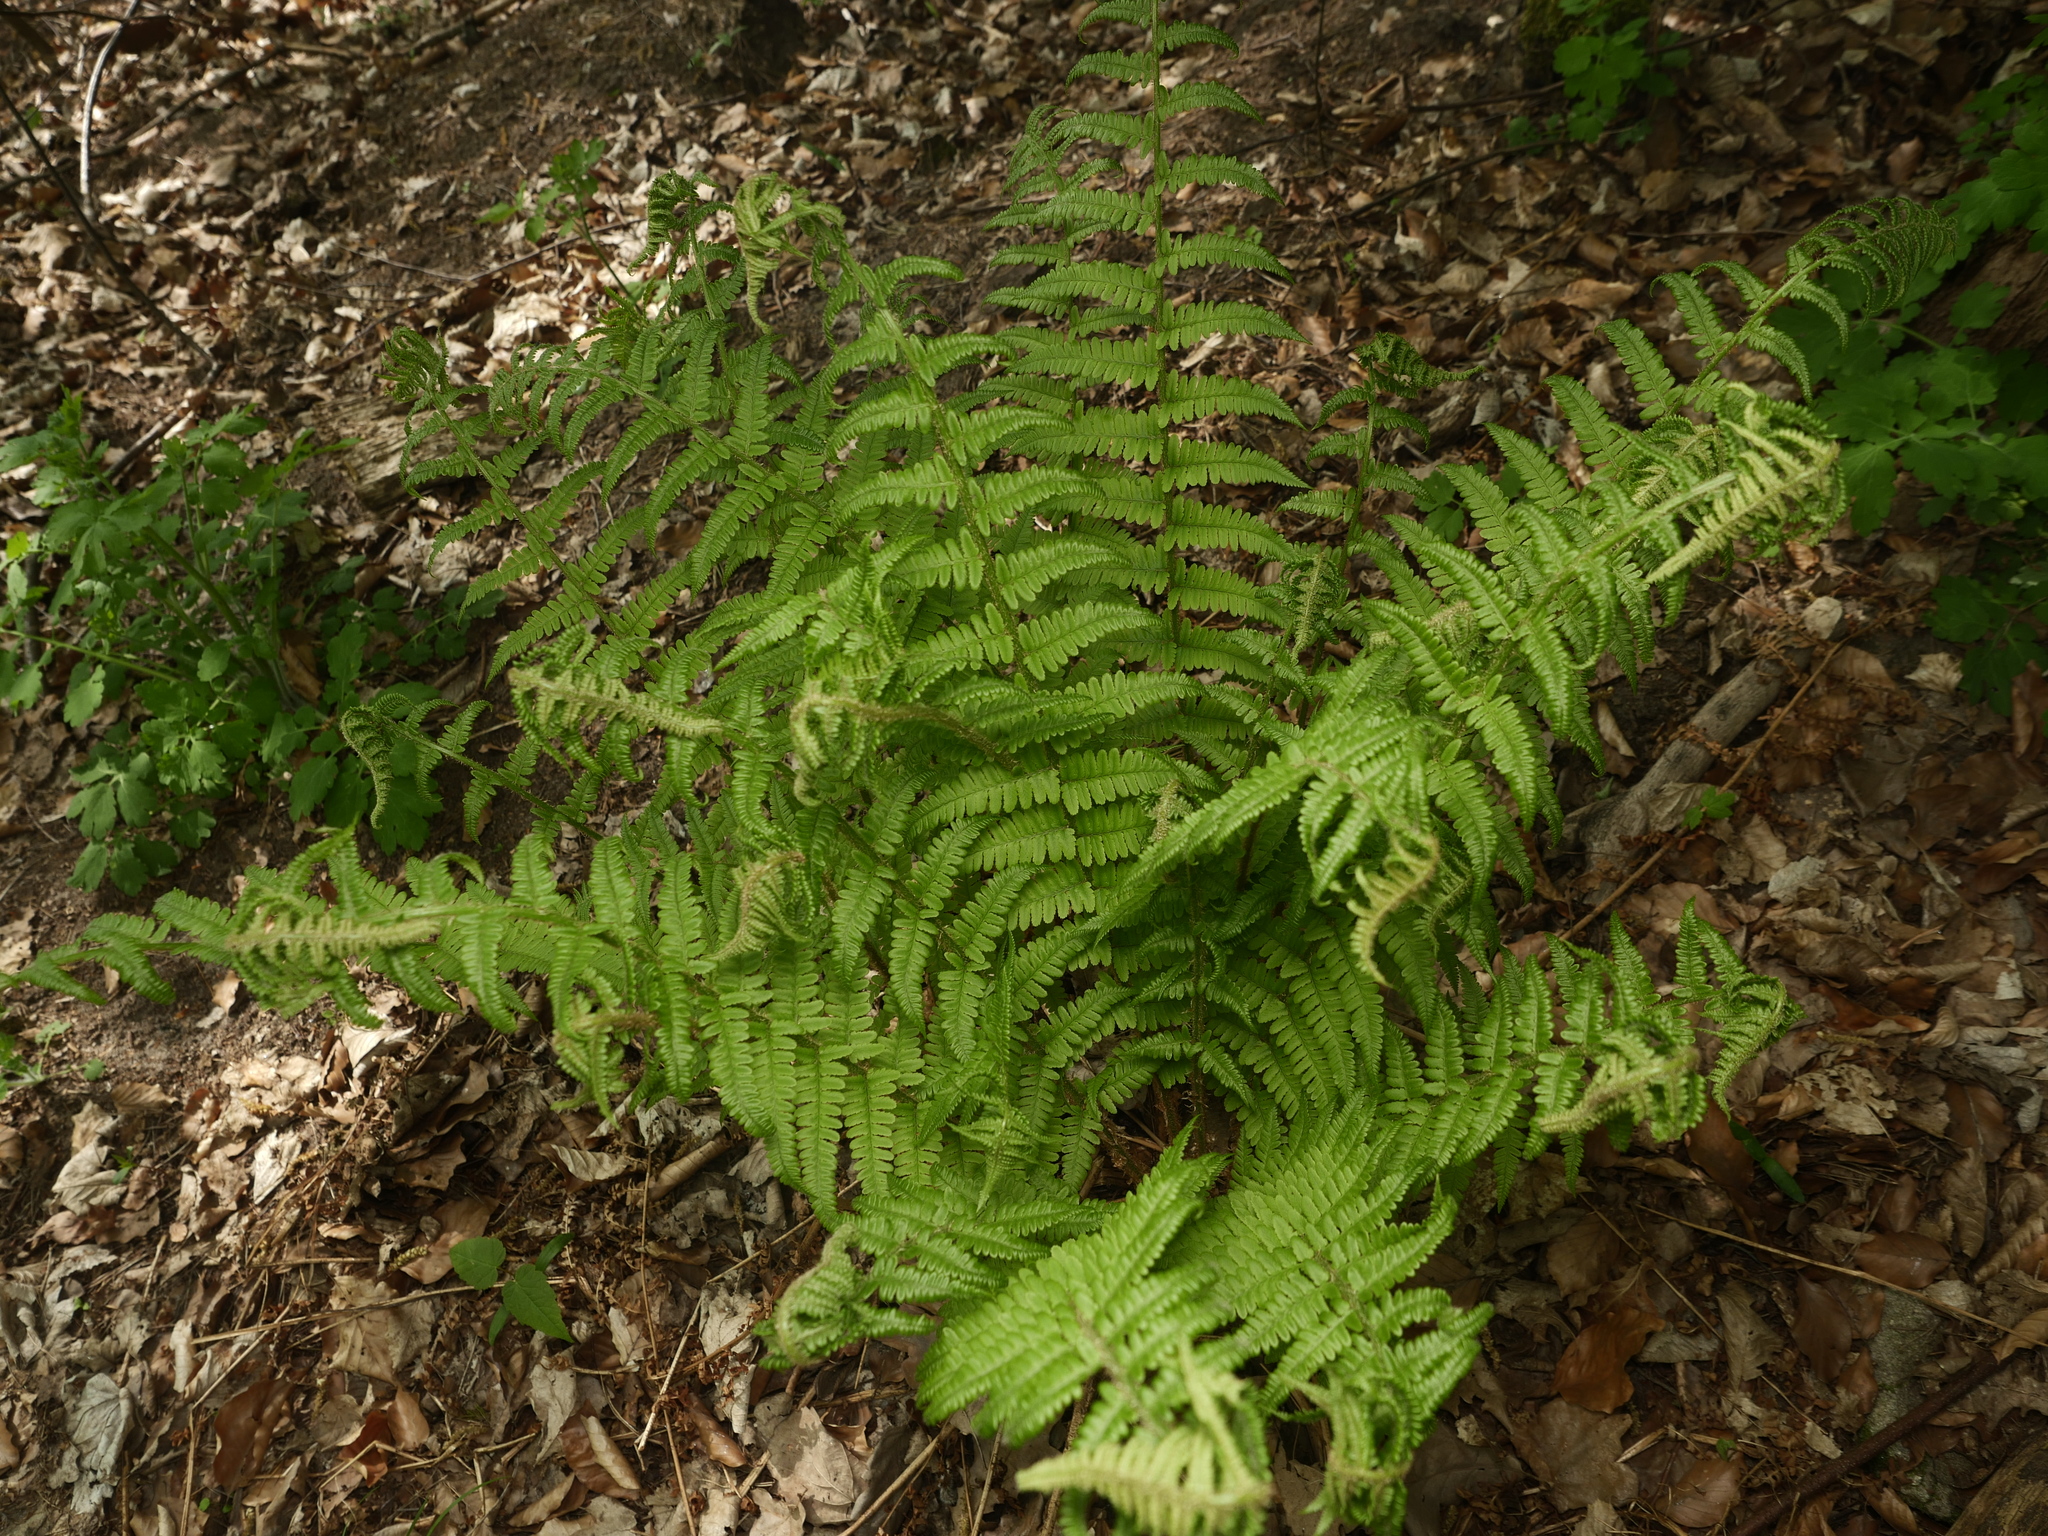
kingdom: Plantae
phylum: Tracheophyta
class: Polypodiopsida
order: Polypodiales
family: Dryopteridaceae
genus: Dryopteris
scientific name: Dryopteris filix-mas
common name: Male fern
